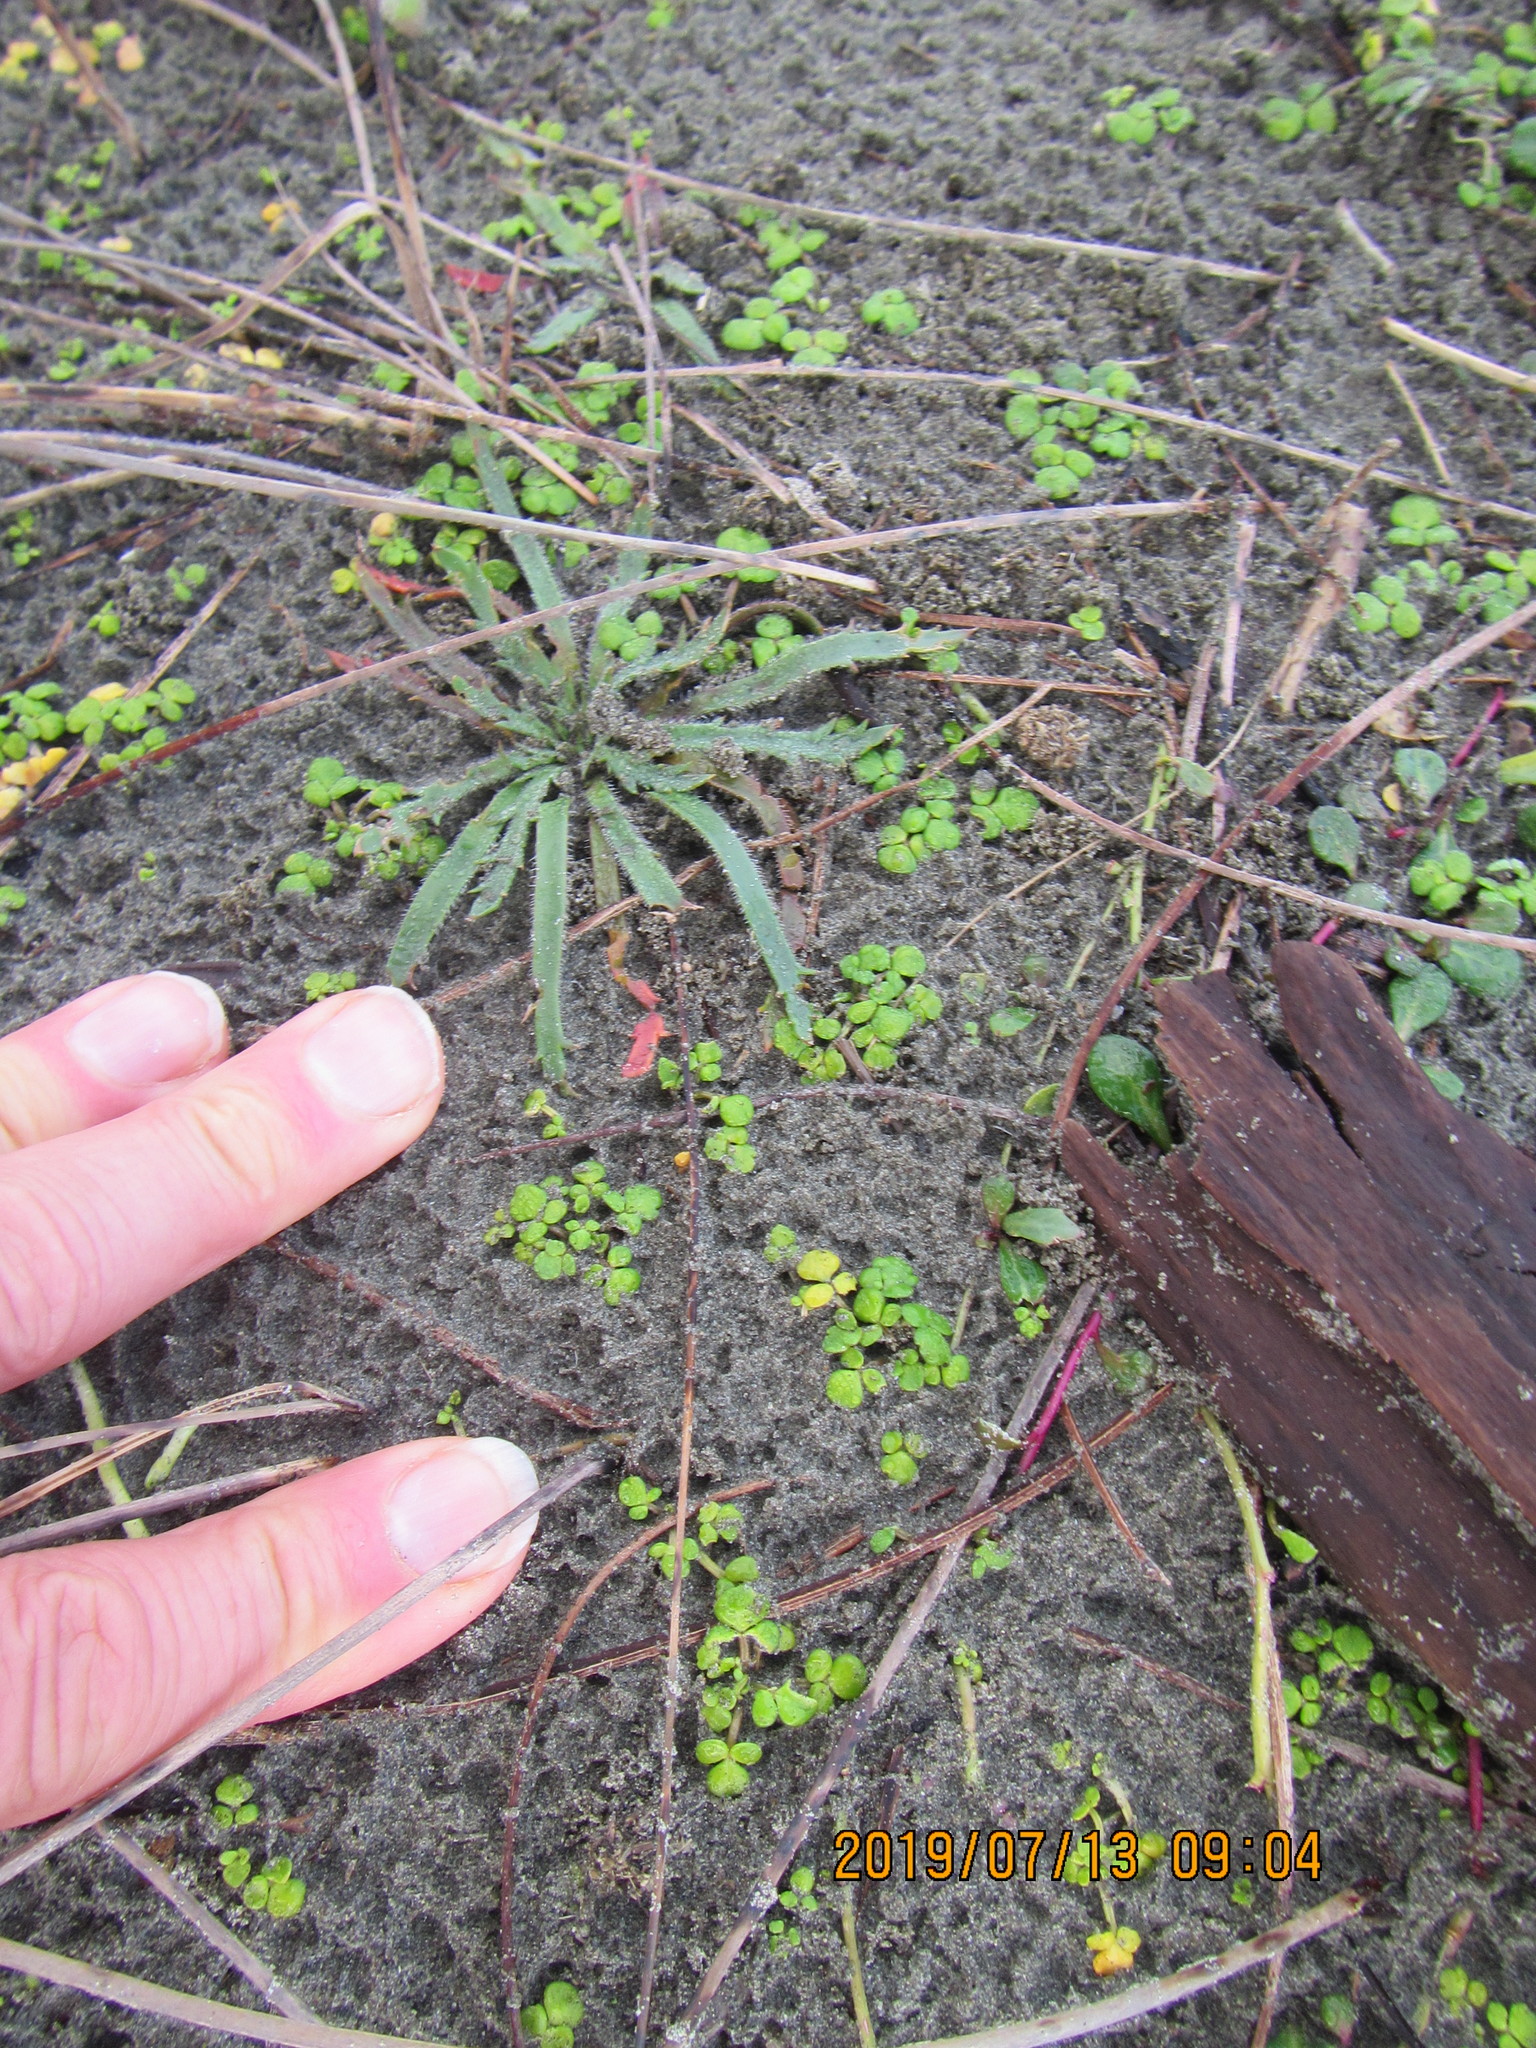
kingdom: Plantae
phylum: Tracheophyta
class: Magnoliopsida
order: Ranunculales
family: Ranunculaceae
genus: Ranunculus
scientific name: Ranunculus acaulis
